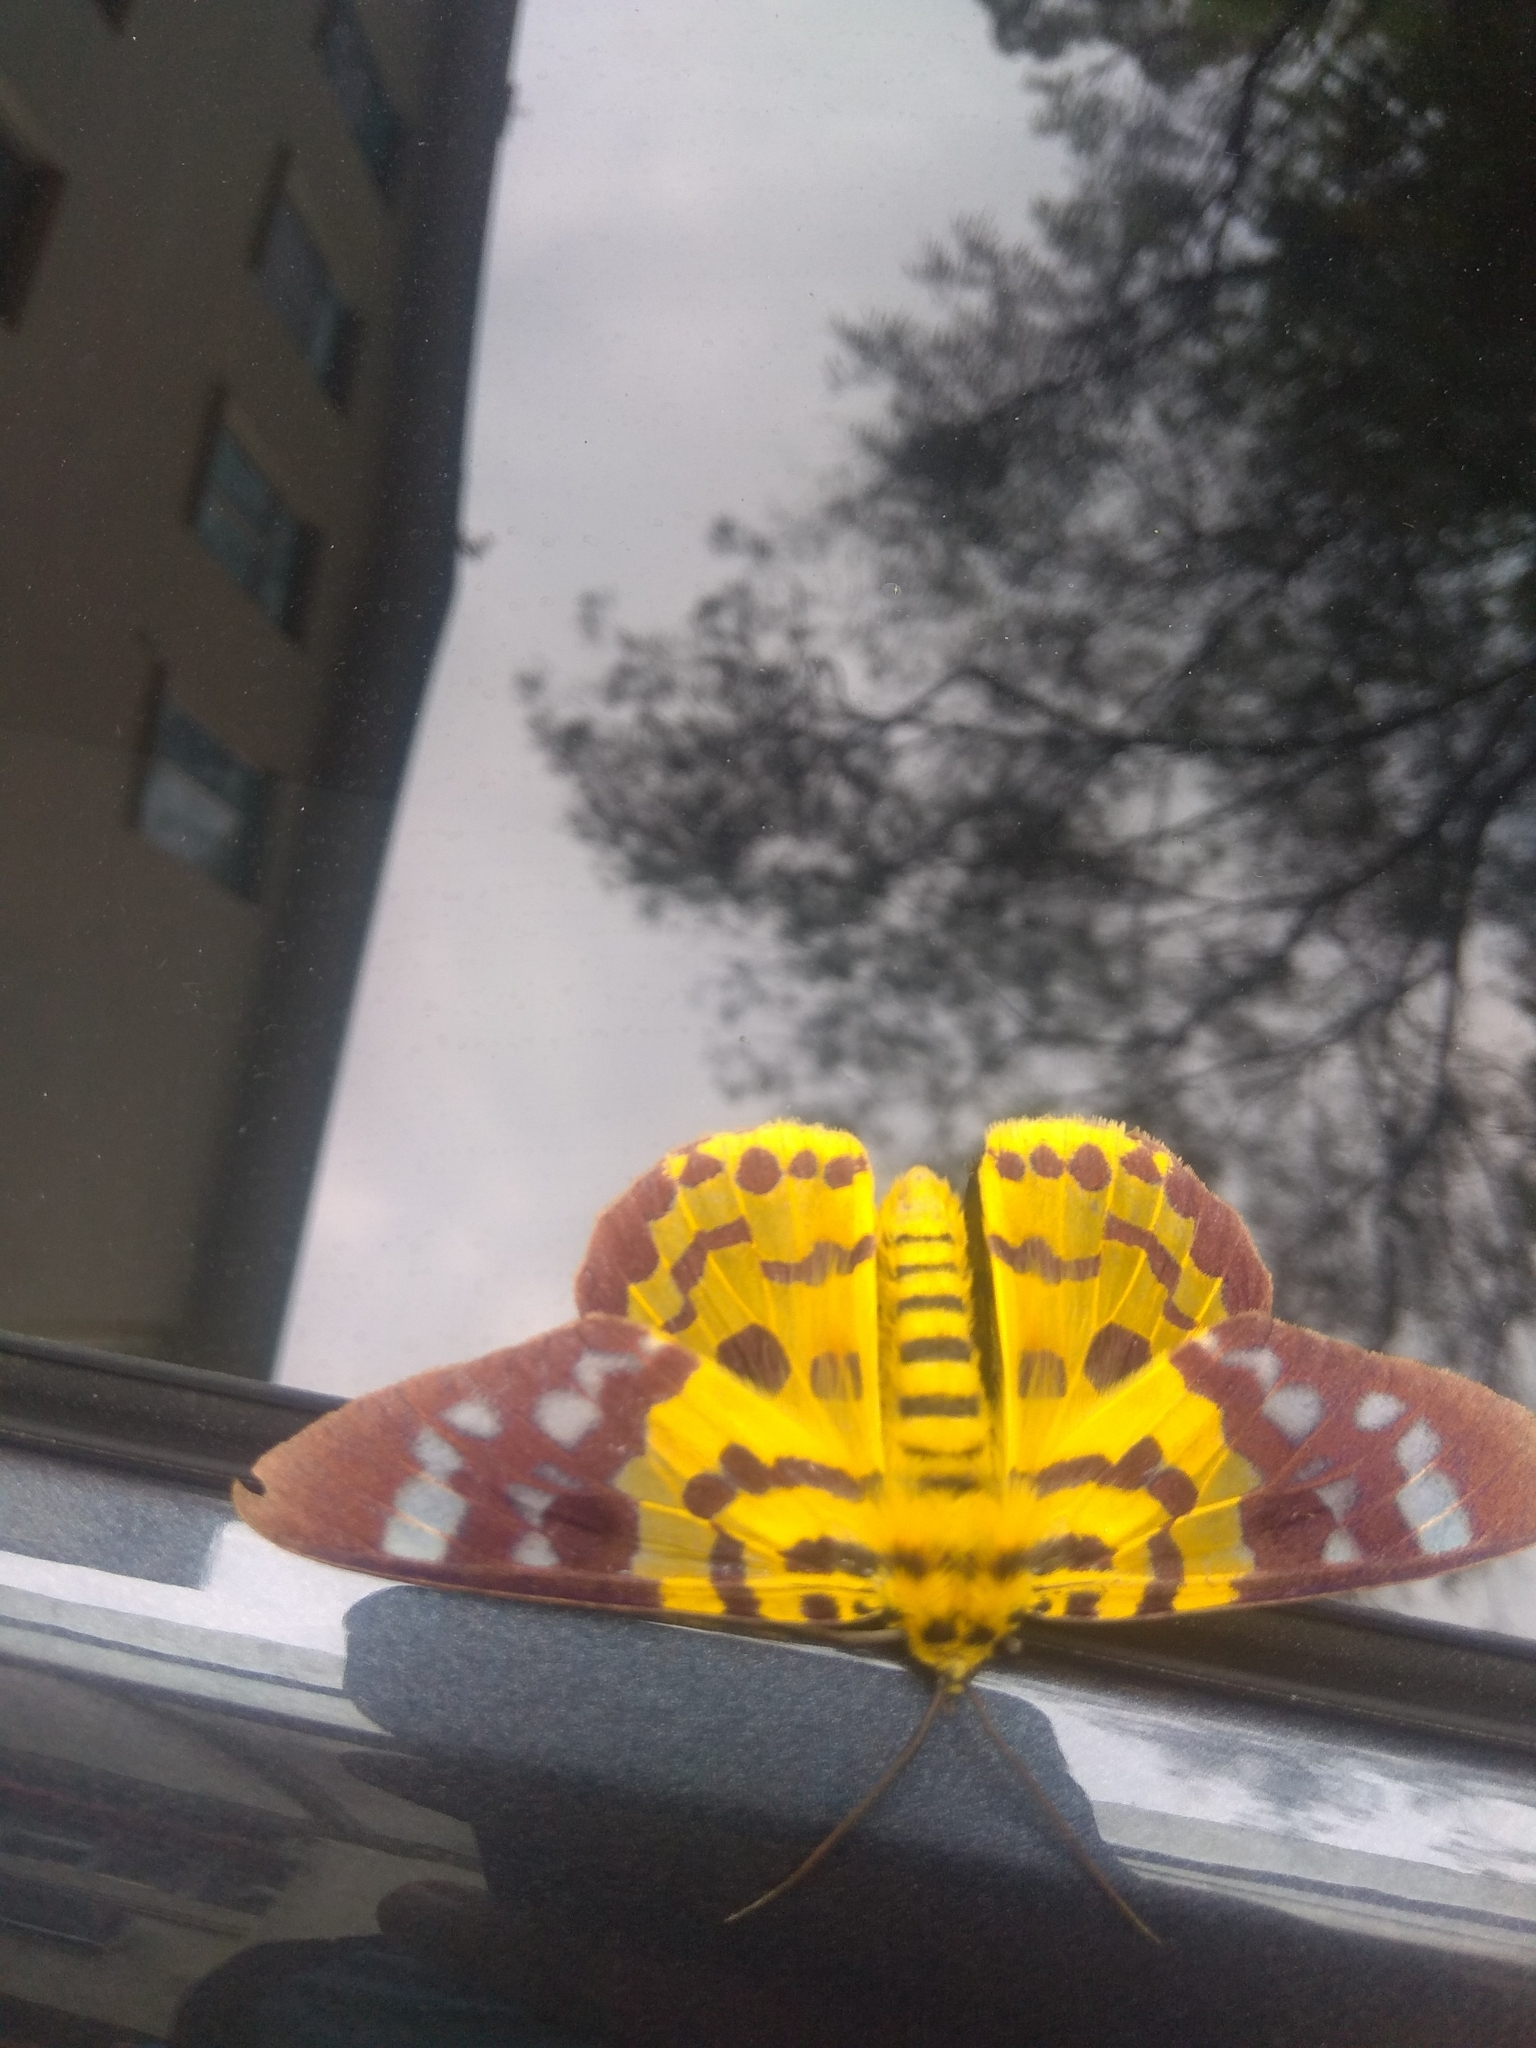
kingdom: Animalia
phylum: Arthropoda
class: Insecta
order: Lepidoptera
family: Geometridae
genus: Dysphania
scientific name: Dysphania militaris
